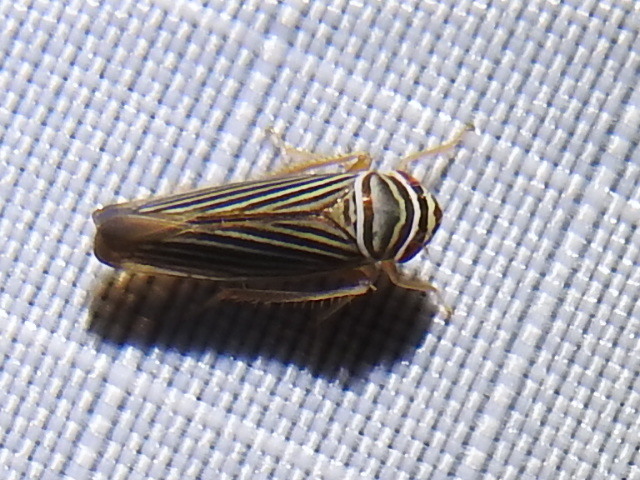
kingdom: Animalia
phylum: Arthropoda
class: Insecta
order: Hemiptera
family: Cicadellidae
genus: Tylozygus
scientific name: Tylozygus bifidus
